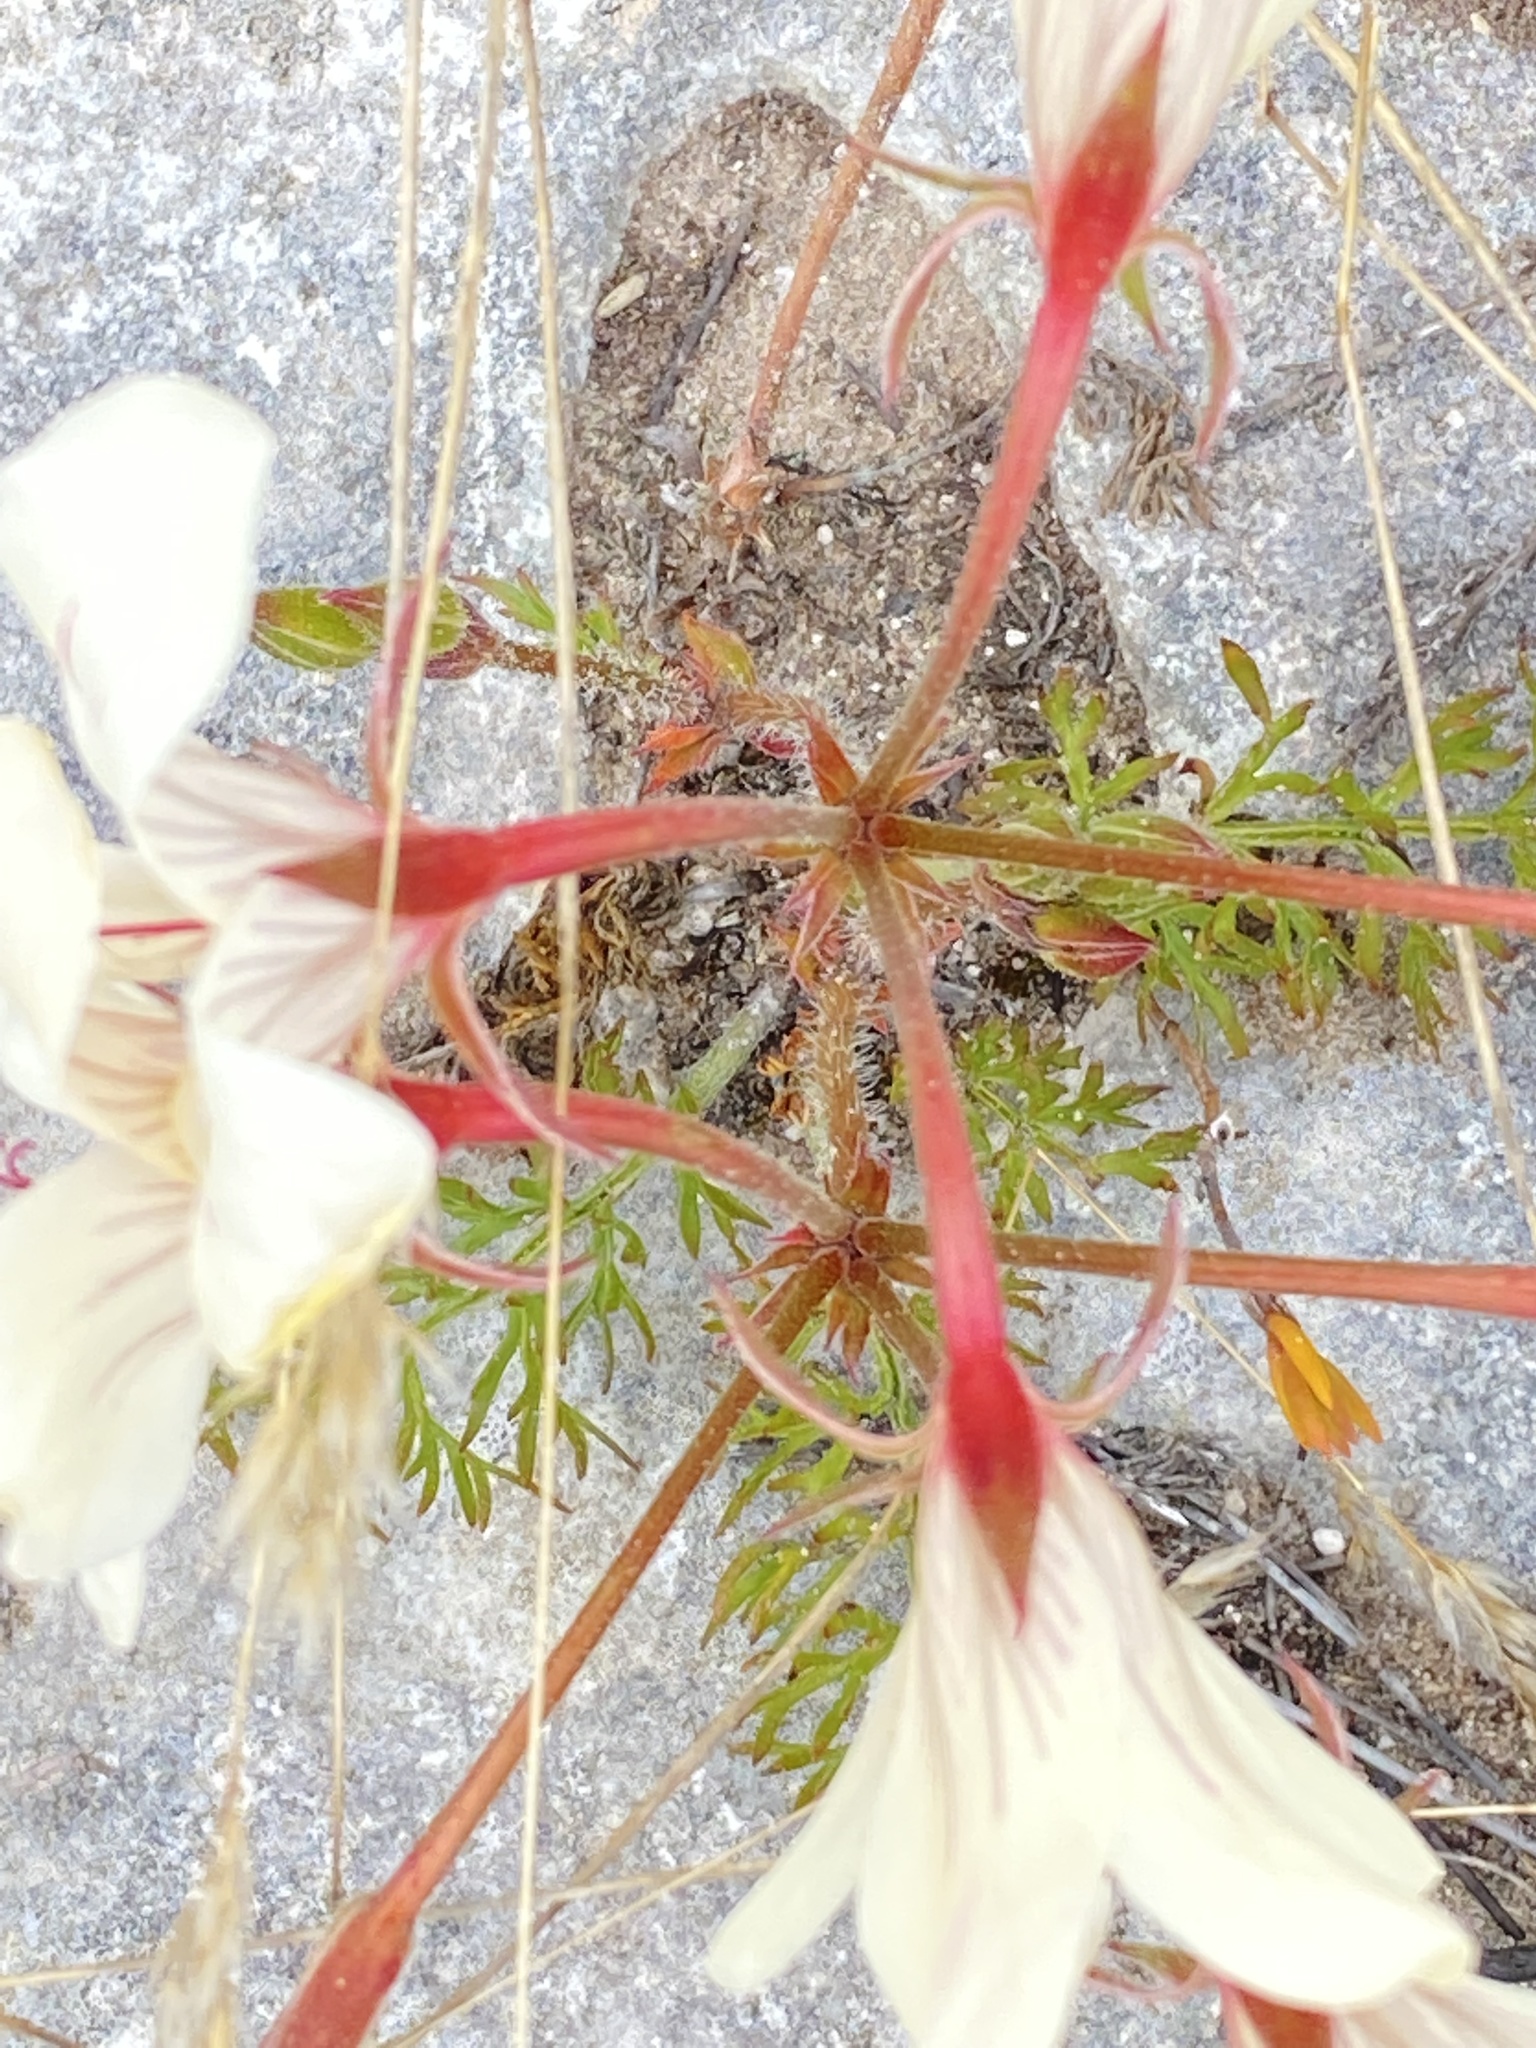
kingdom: Plantae
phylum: Tracheophyta
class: Magnoliopsida
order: Geraniales
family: Geraniaceae
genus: Pelargonium
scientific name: Pelargonium carneum
